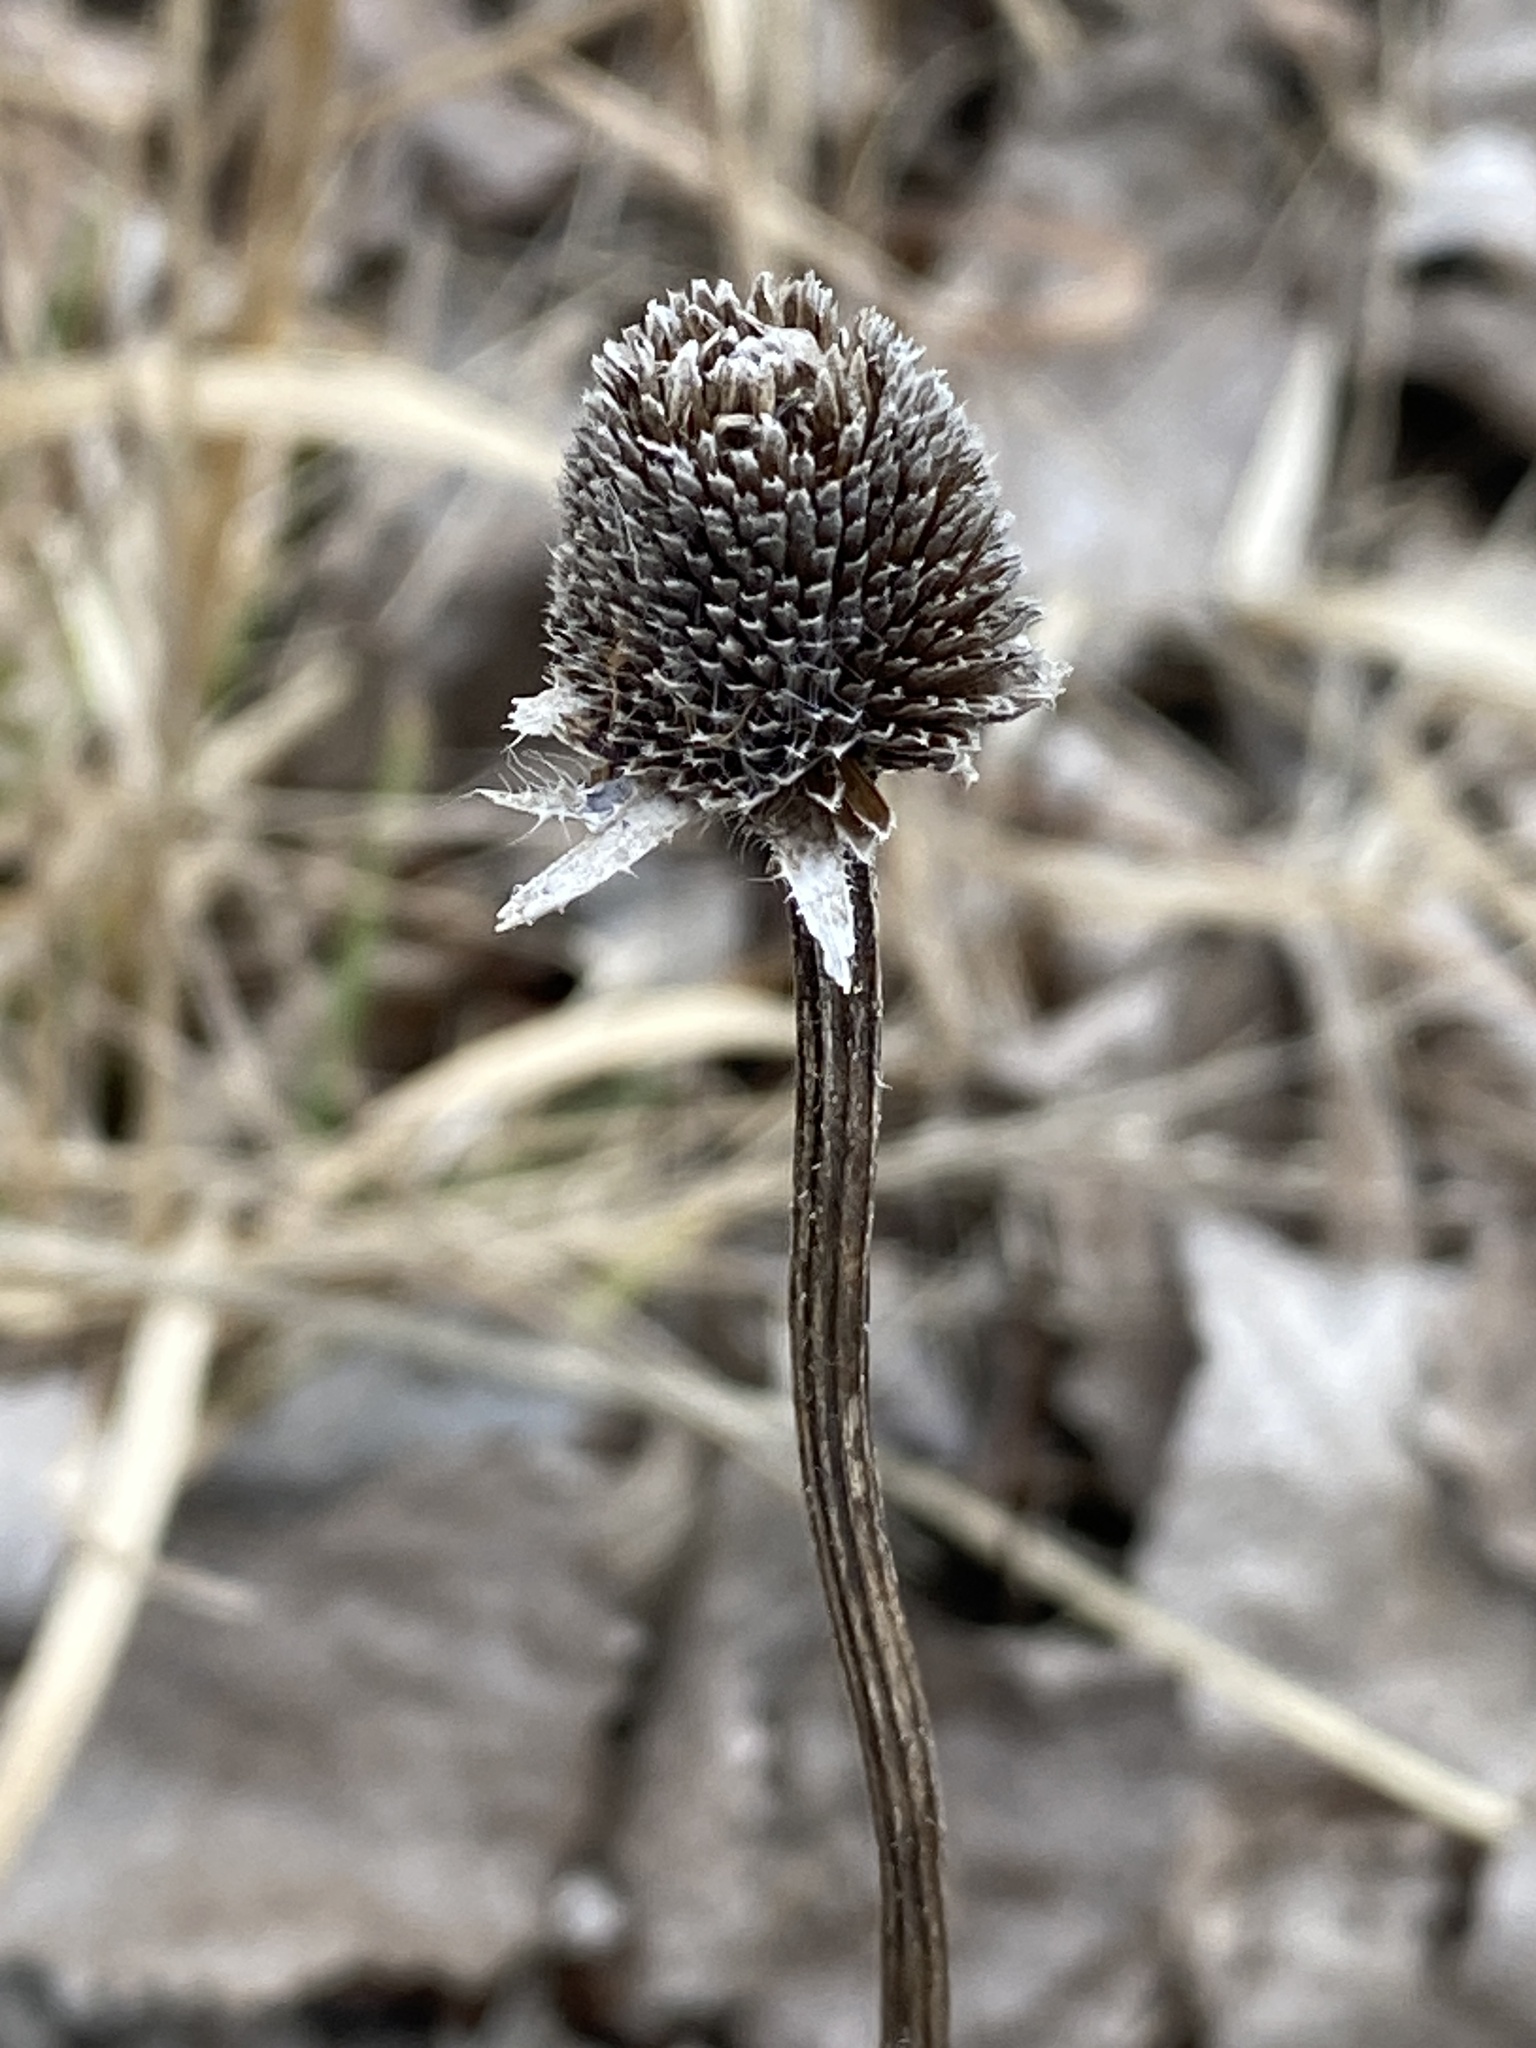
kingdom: Plantae
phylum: Tracheophyta
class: Magnoliopsida
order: Asterales
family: Asteraceae
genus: Rudbeckia
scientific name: Rudbeckia hirta
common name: Black-eyed-susan
